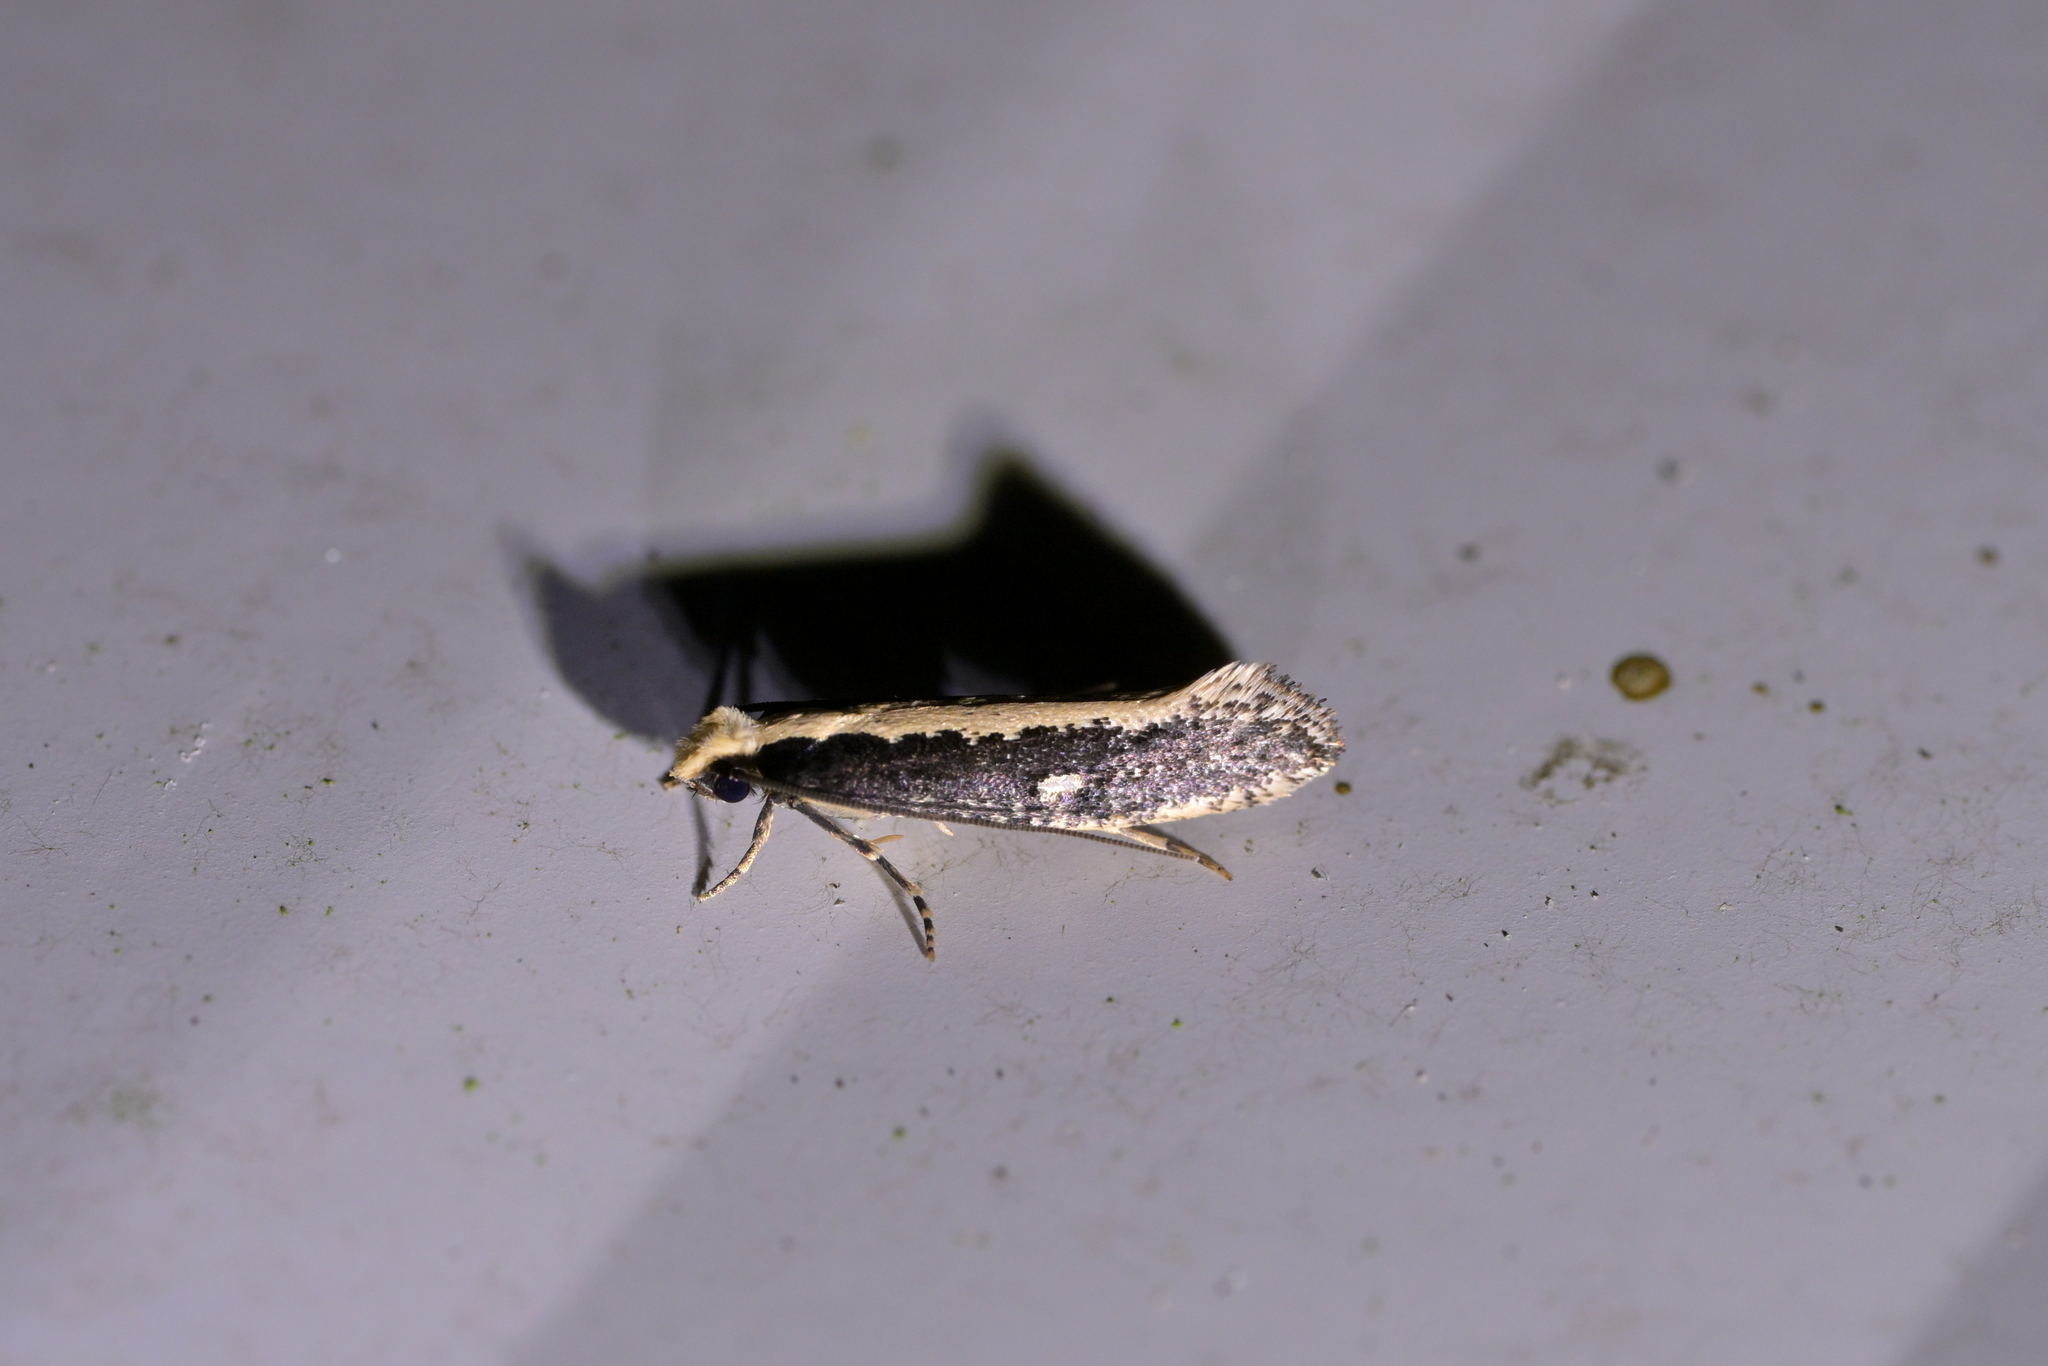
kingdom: Animalia
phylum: Arthropoda
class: Insecta
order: Lepidoptera
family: Tineidae
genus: Monopis
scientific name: Monopis ethelella
